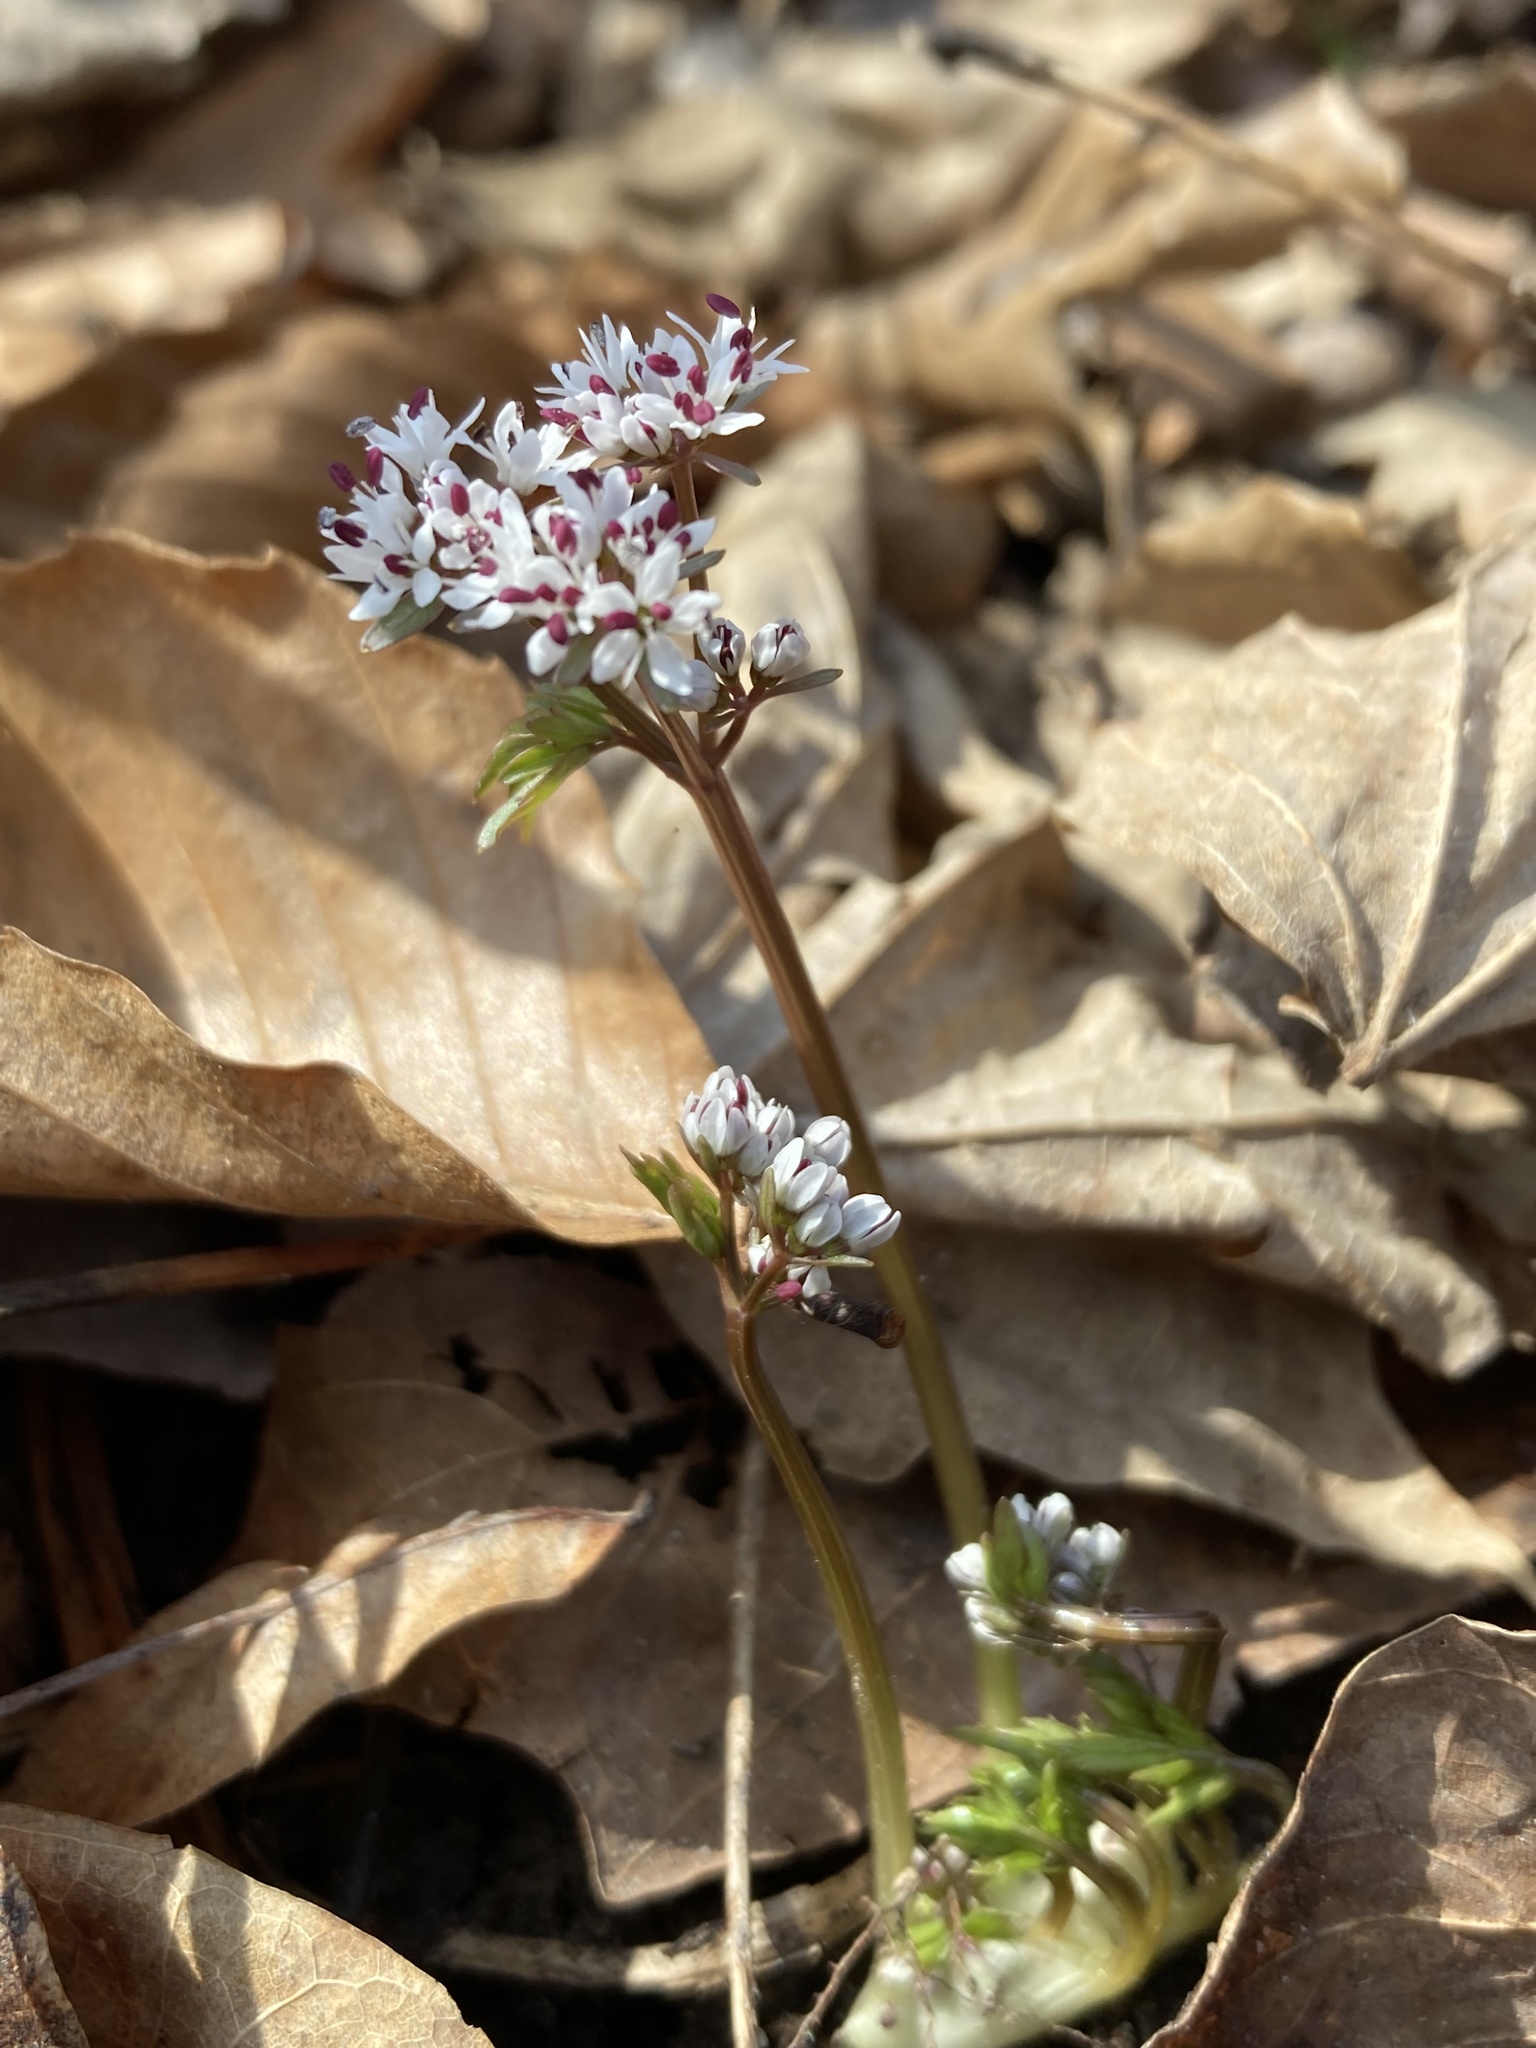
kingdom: Plantae
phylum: Tracheophyta
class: Magnoliopsida
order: Apiales
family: Apiaceae
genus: Erigenia
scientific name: Erigenia bulbosa
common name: Pepper-and-salt
